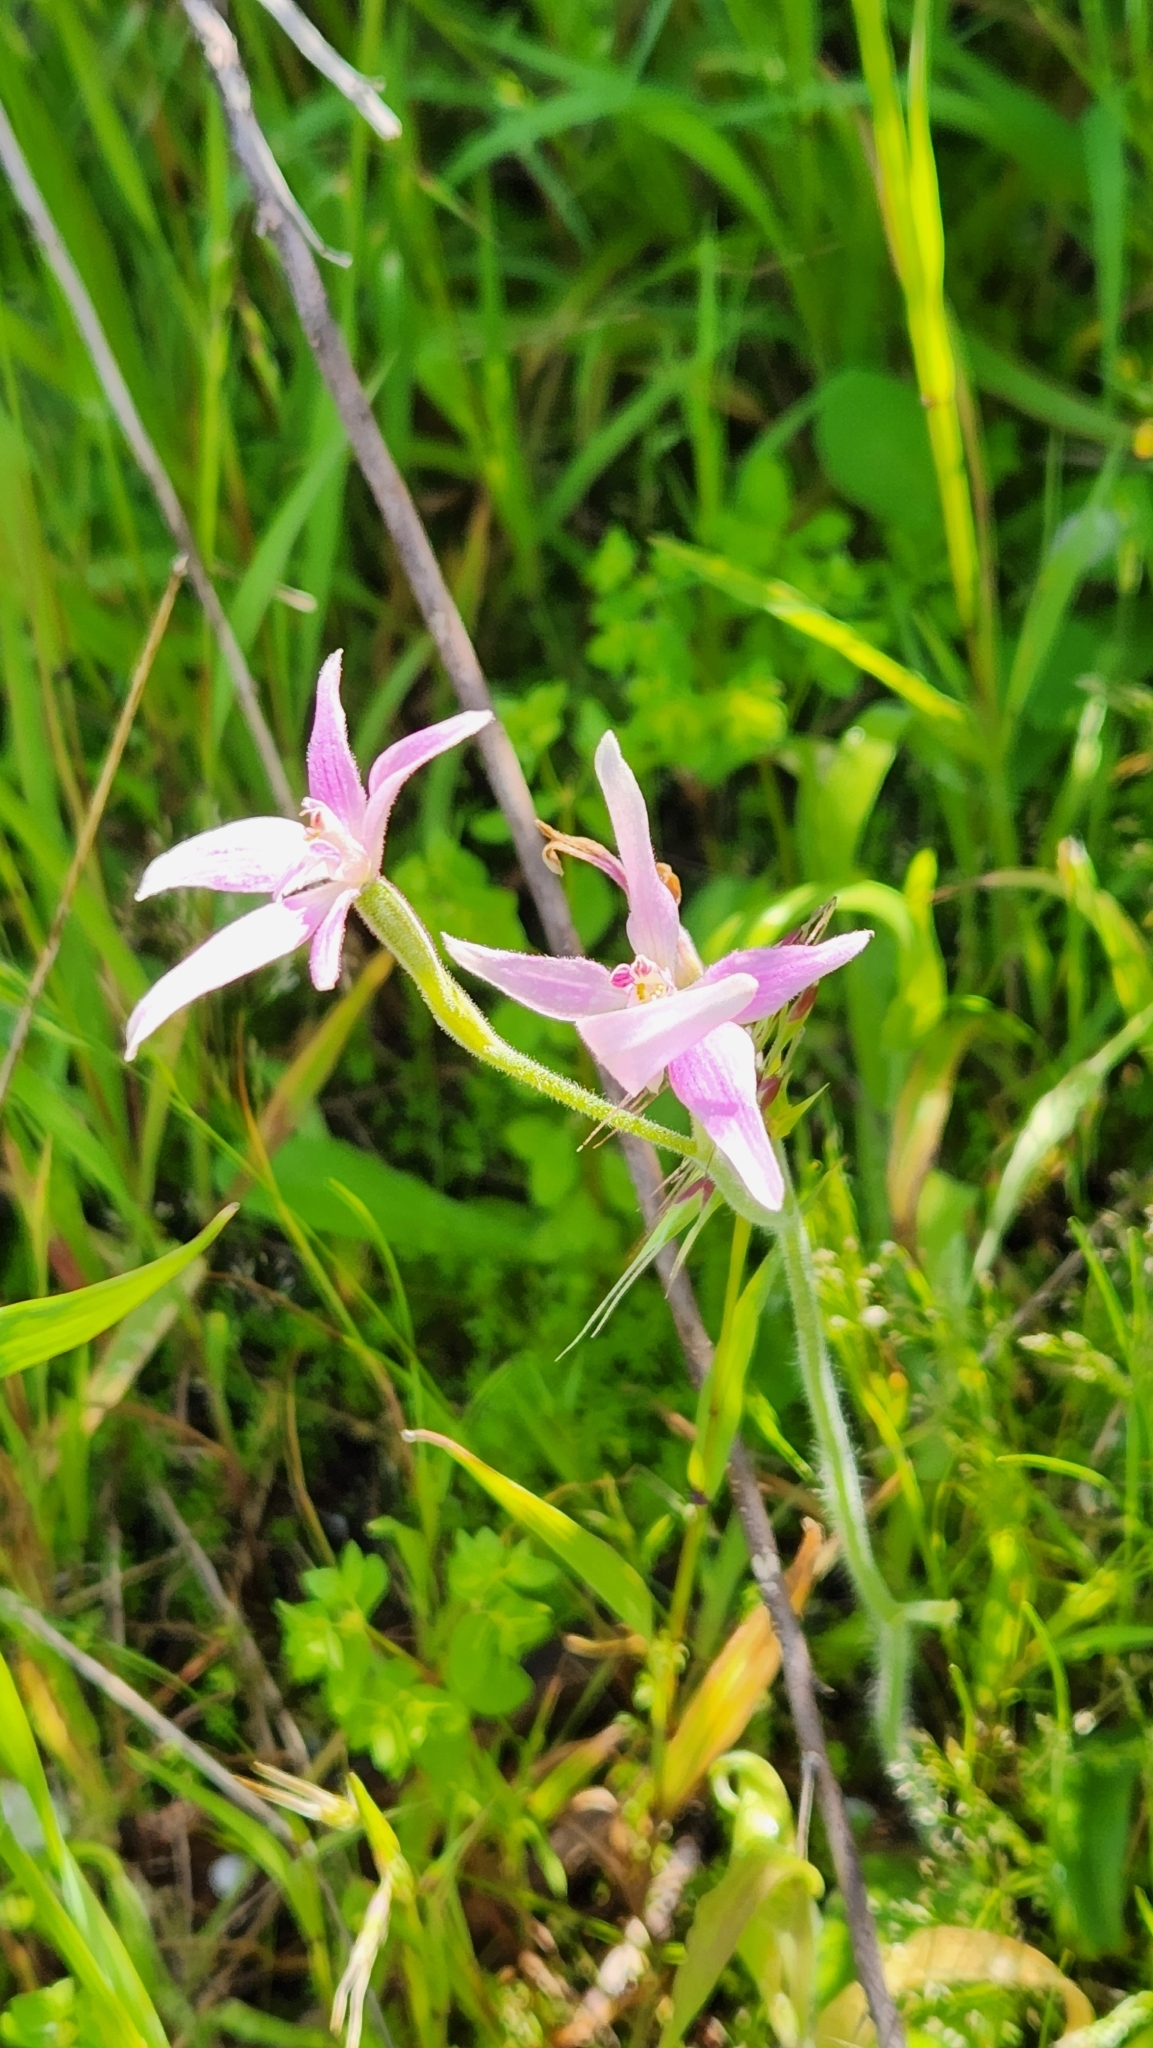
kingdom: Plantae
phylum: Tracheophyta
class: Liliopsida
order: Asparagales
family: Orchidaceae
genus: Caladenia
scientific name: Caladenia latifolia
